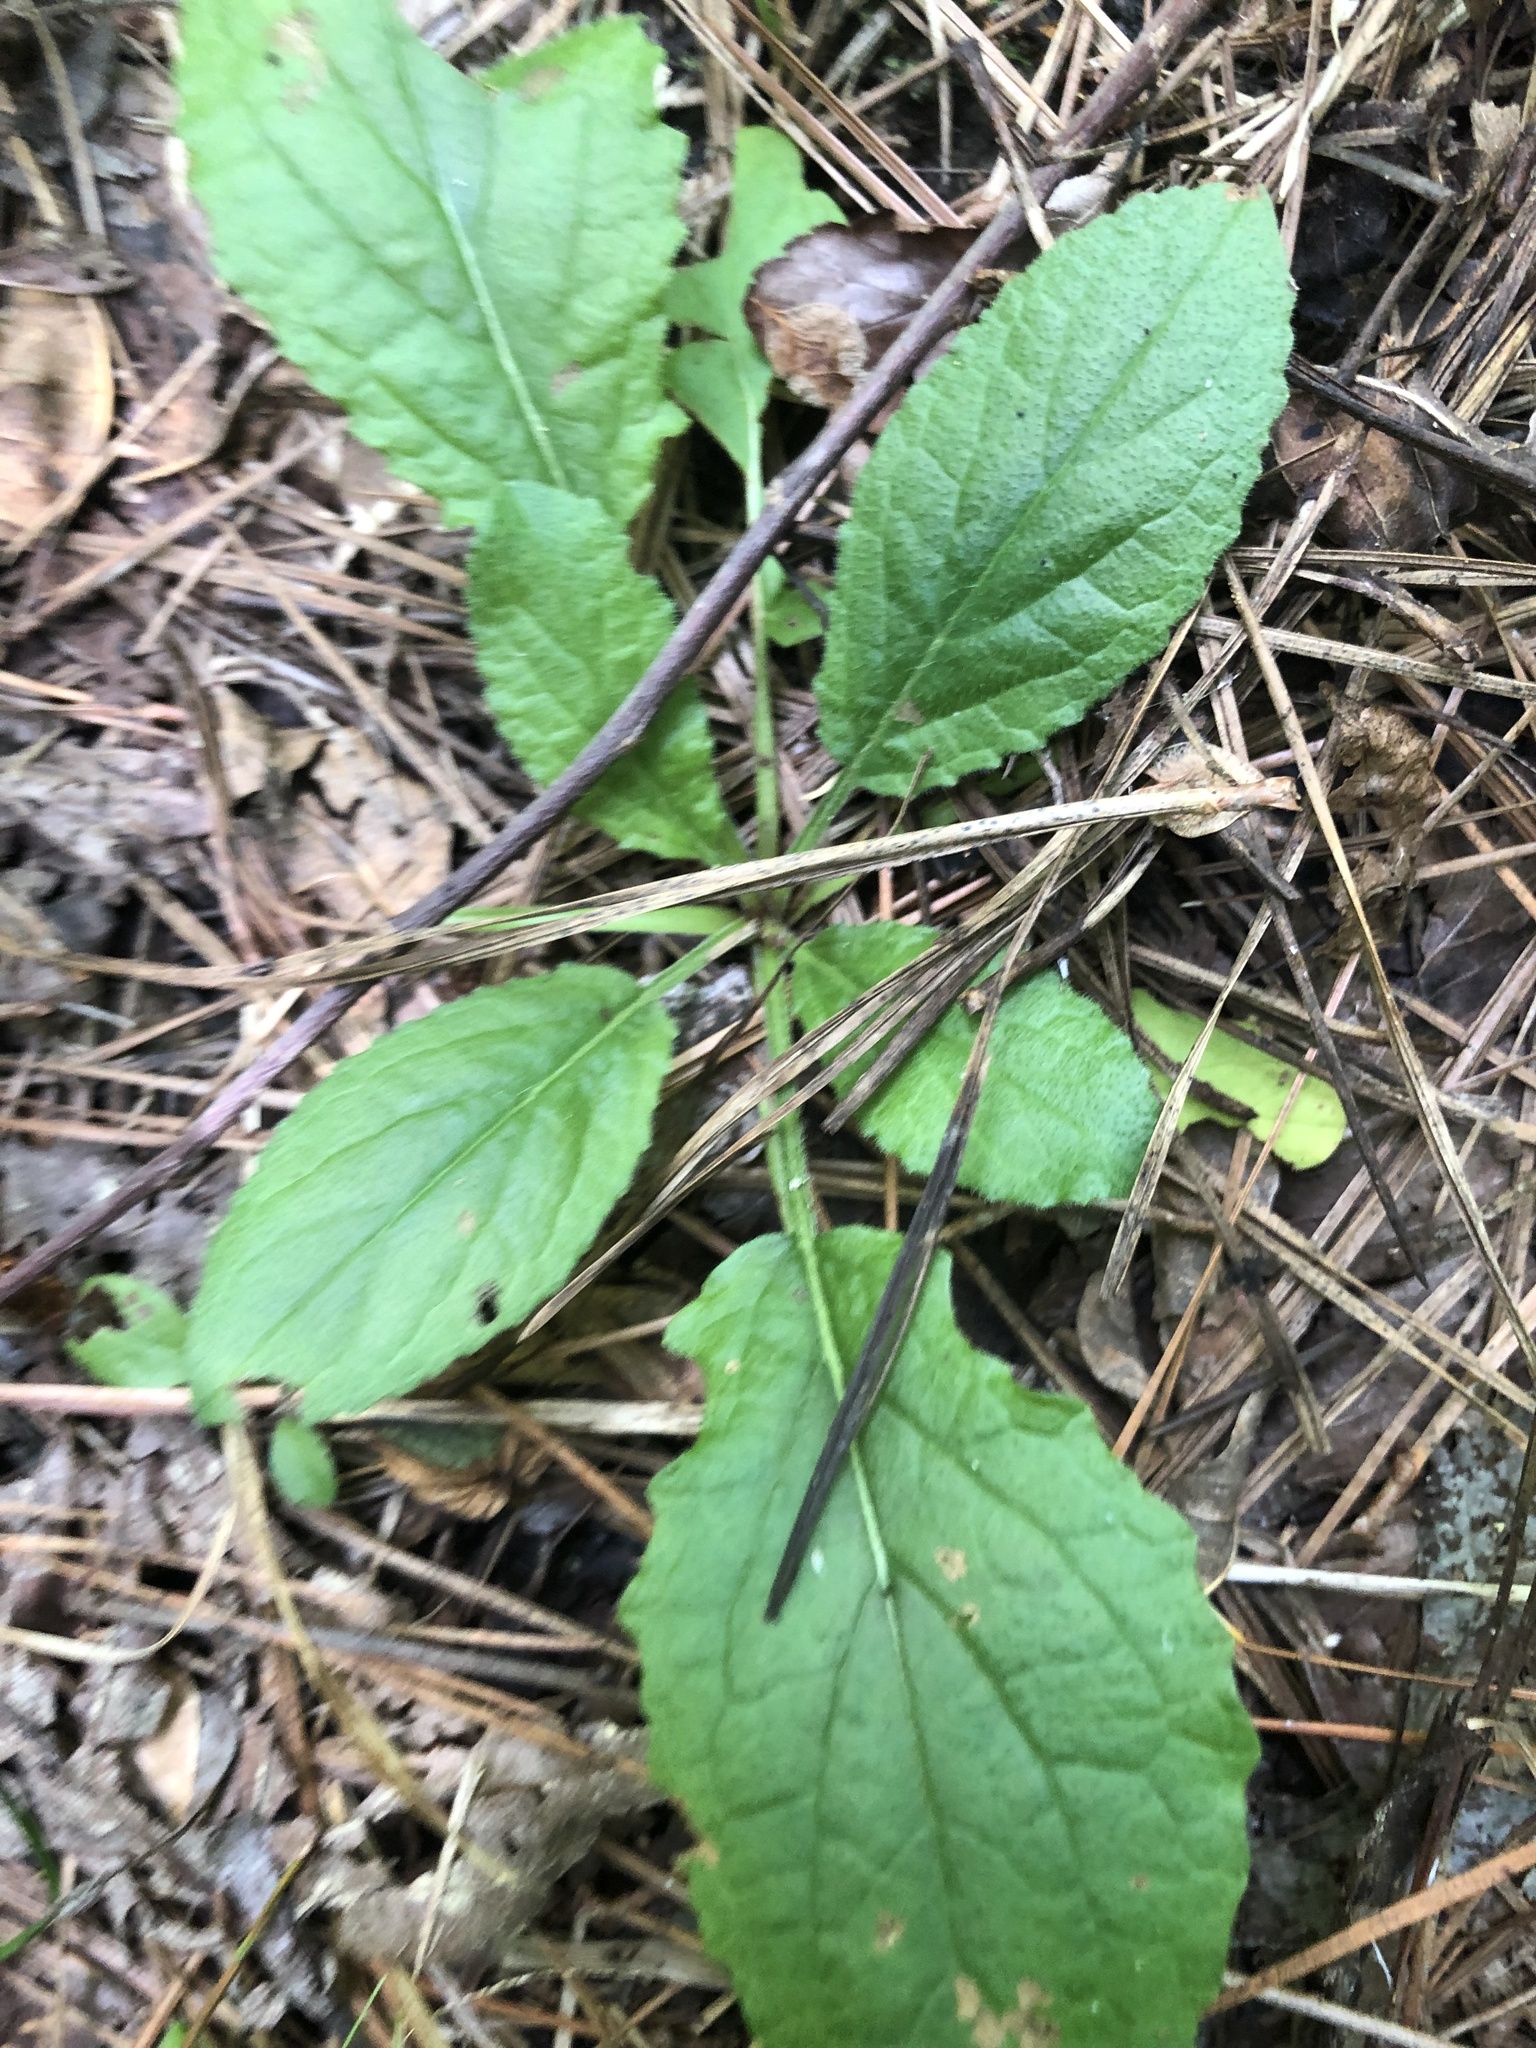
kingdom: Plantae
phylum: Tracheophyta
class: Magnoliopsida
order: Asterales
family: Asteraceae
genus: Chrysogonum
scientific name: Chrysogonum australe
